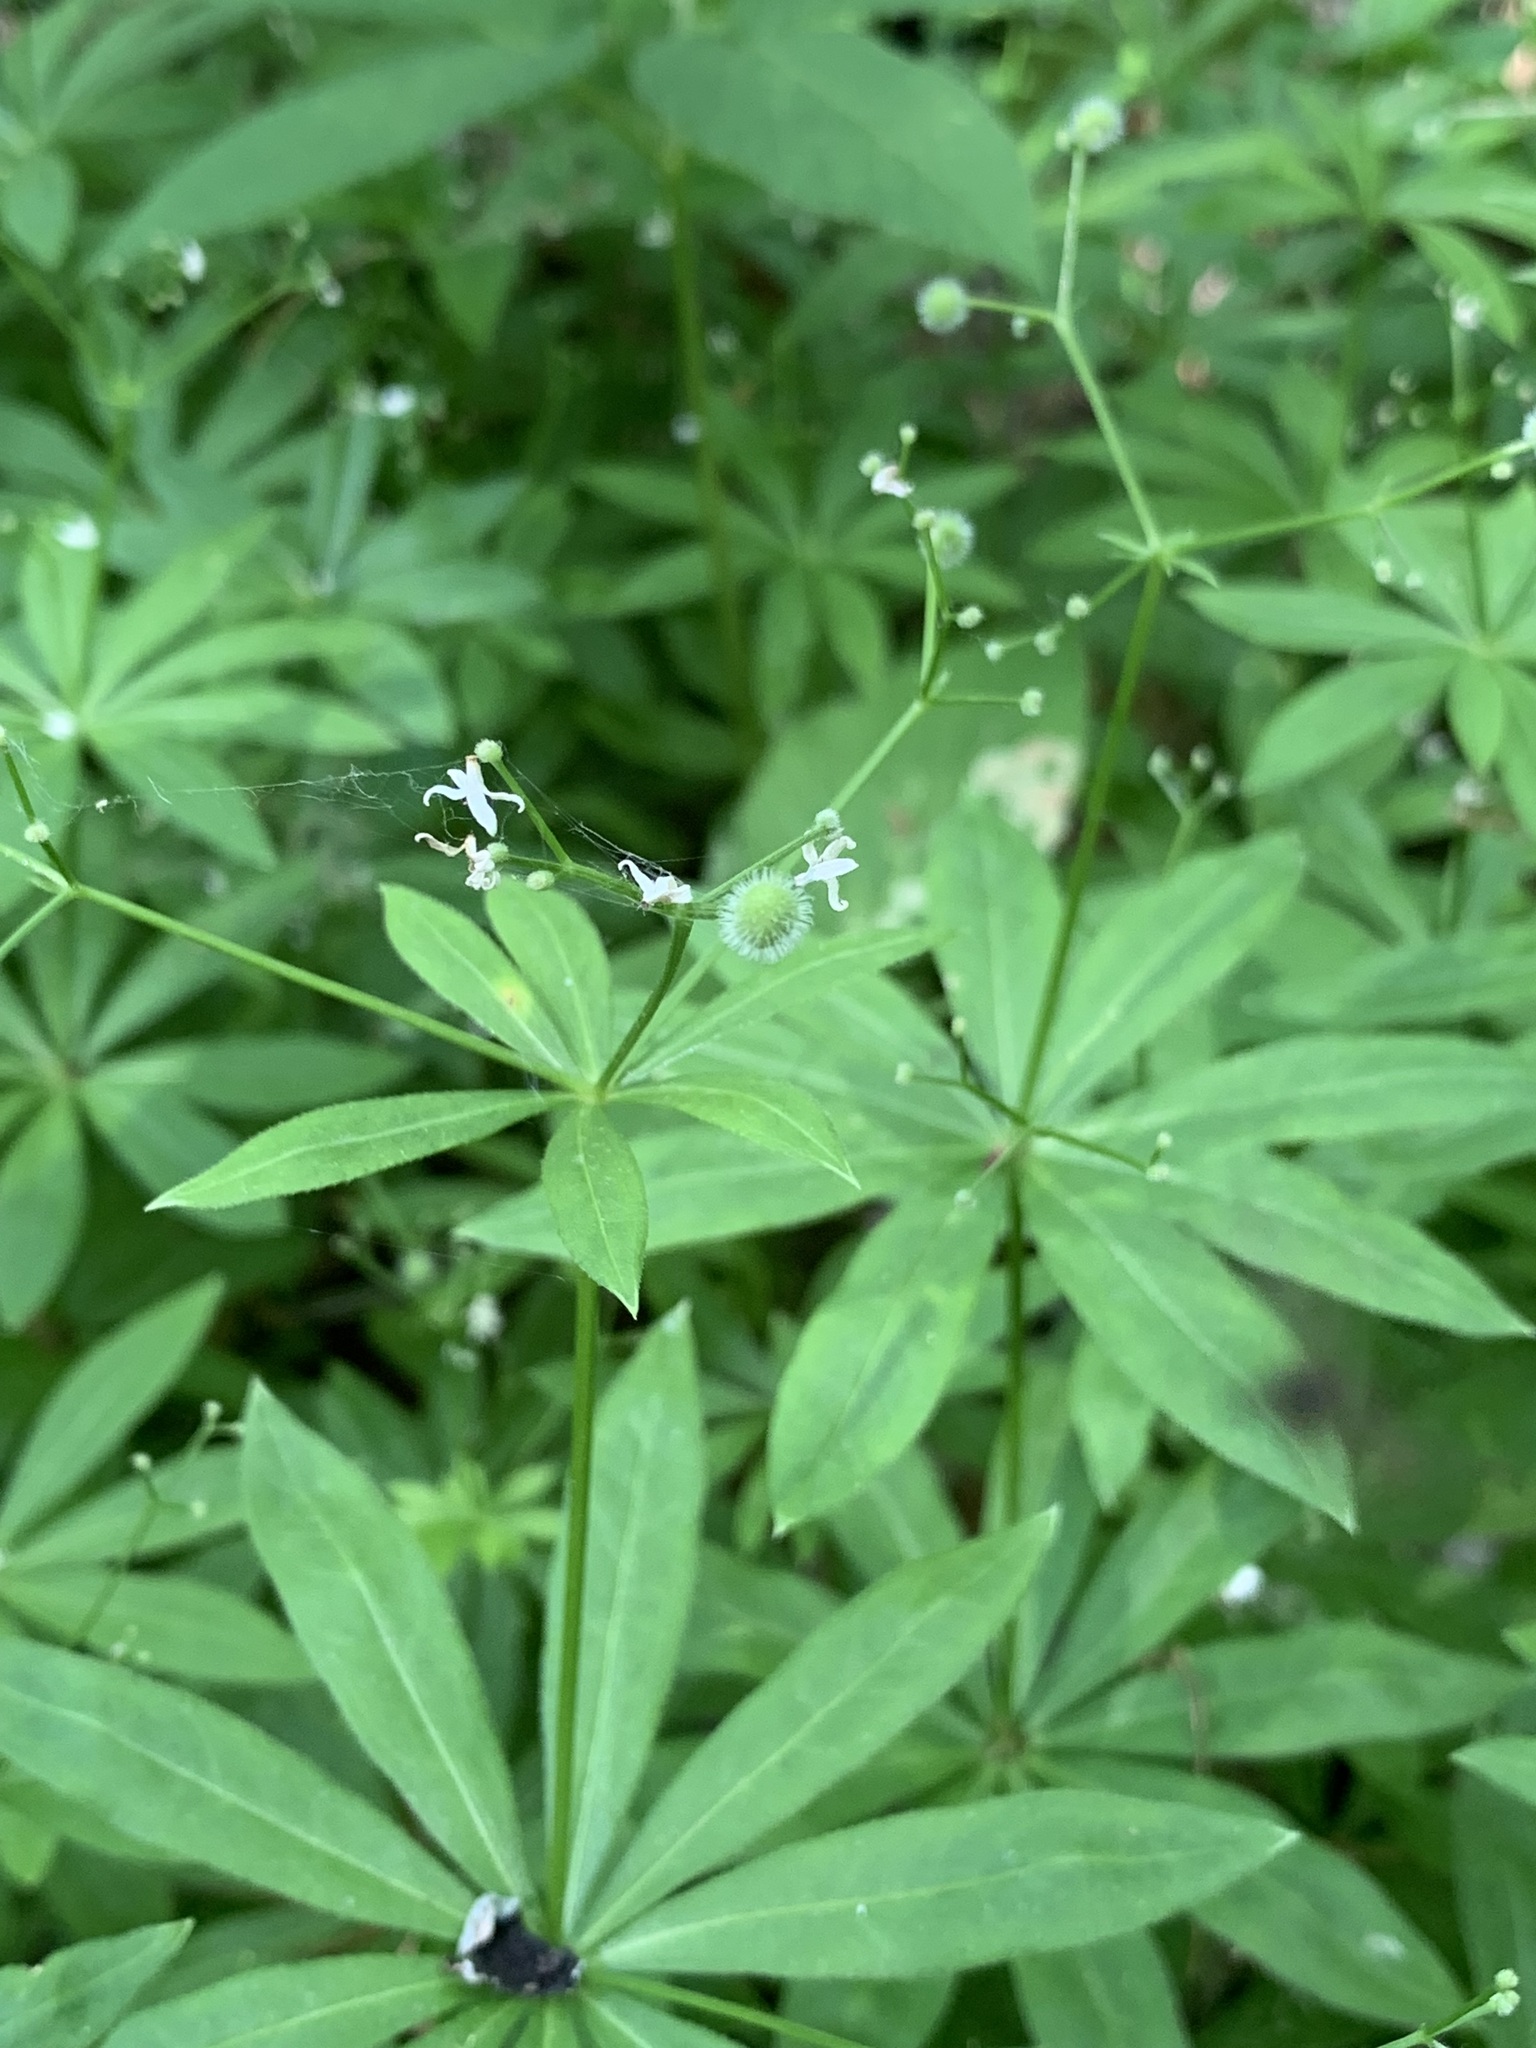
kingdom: Plantae
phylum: Tracheophyta
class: Magnoliopsida
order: Gentianales
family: Rubiaceae
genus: Galium
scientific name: Galium odoratum
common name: Sweet woodruff
